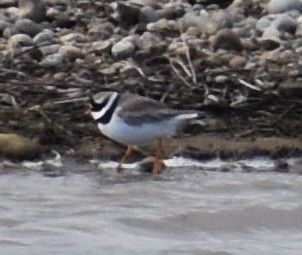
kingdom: Animalia
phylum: Chordata
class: Aves
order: Charadriiformes
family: Charadriidae
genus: Charadrius
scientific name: Charadrius hiaticula
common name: Common ringed plover
